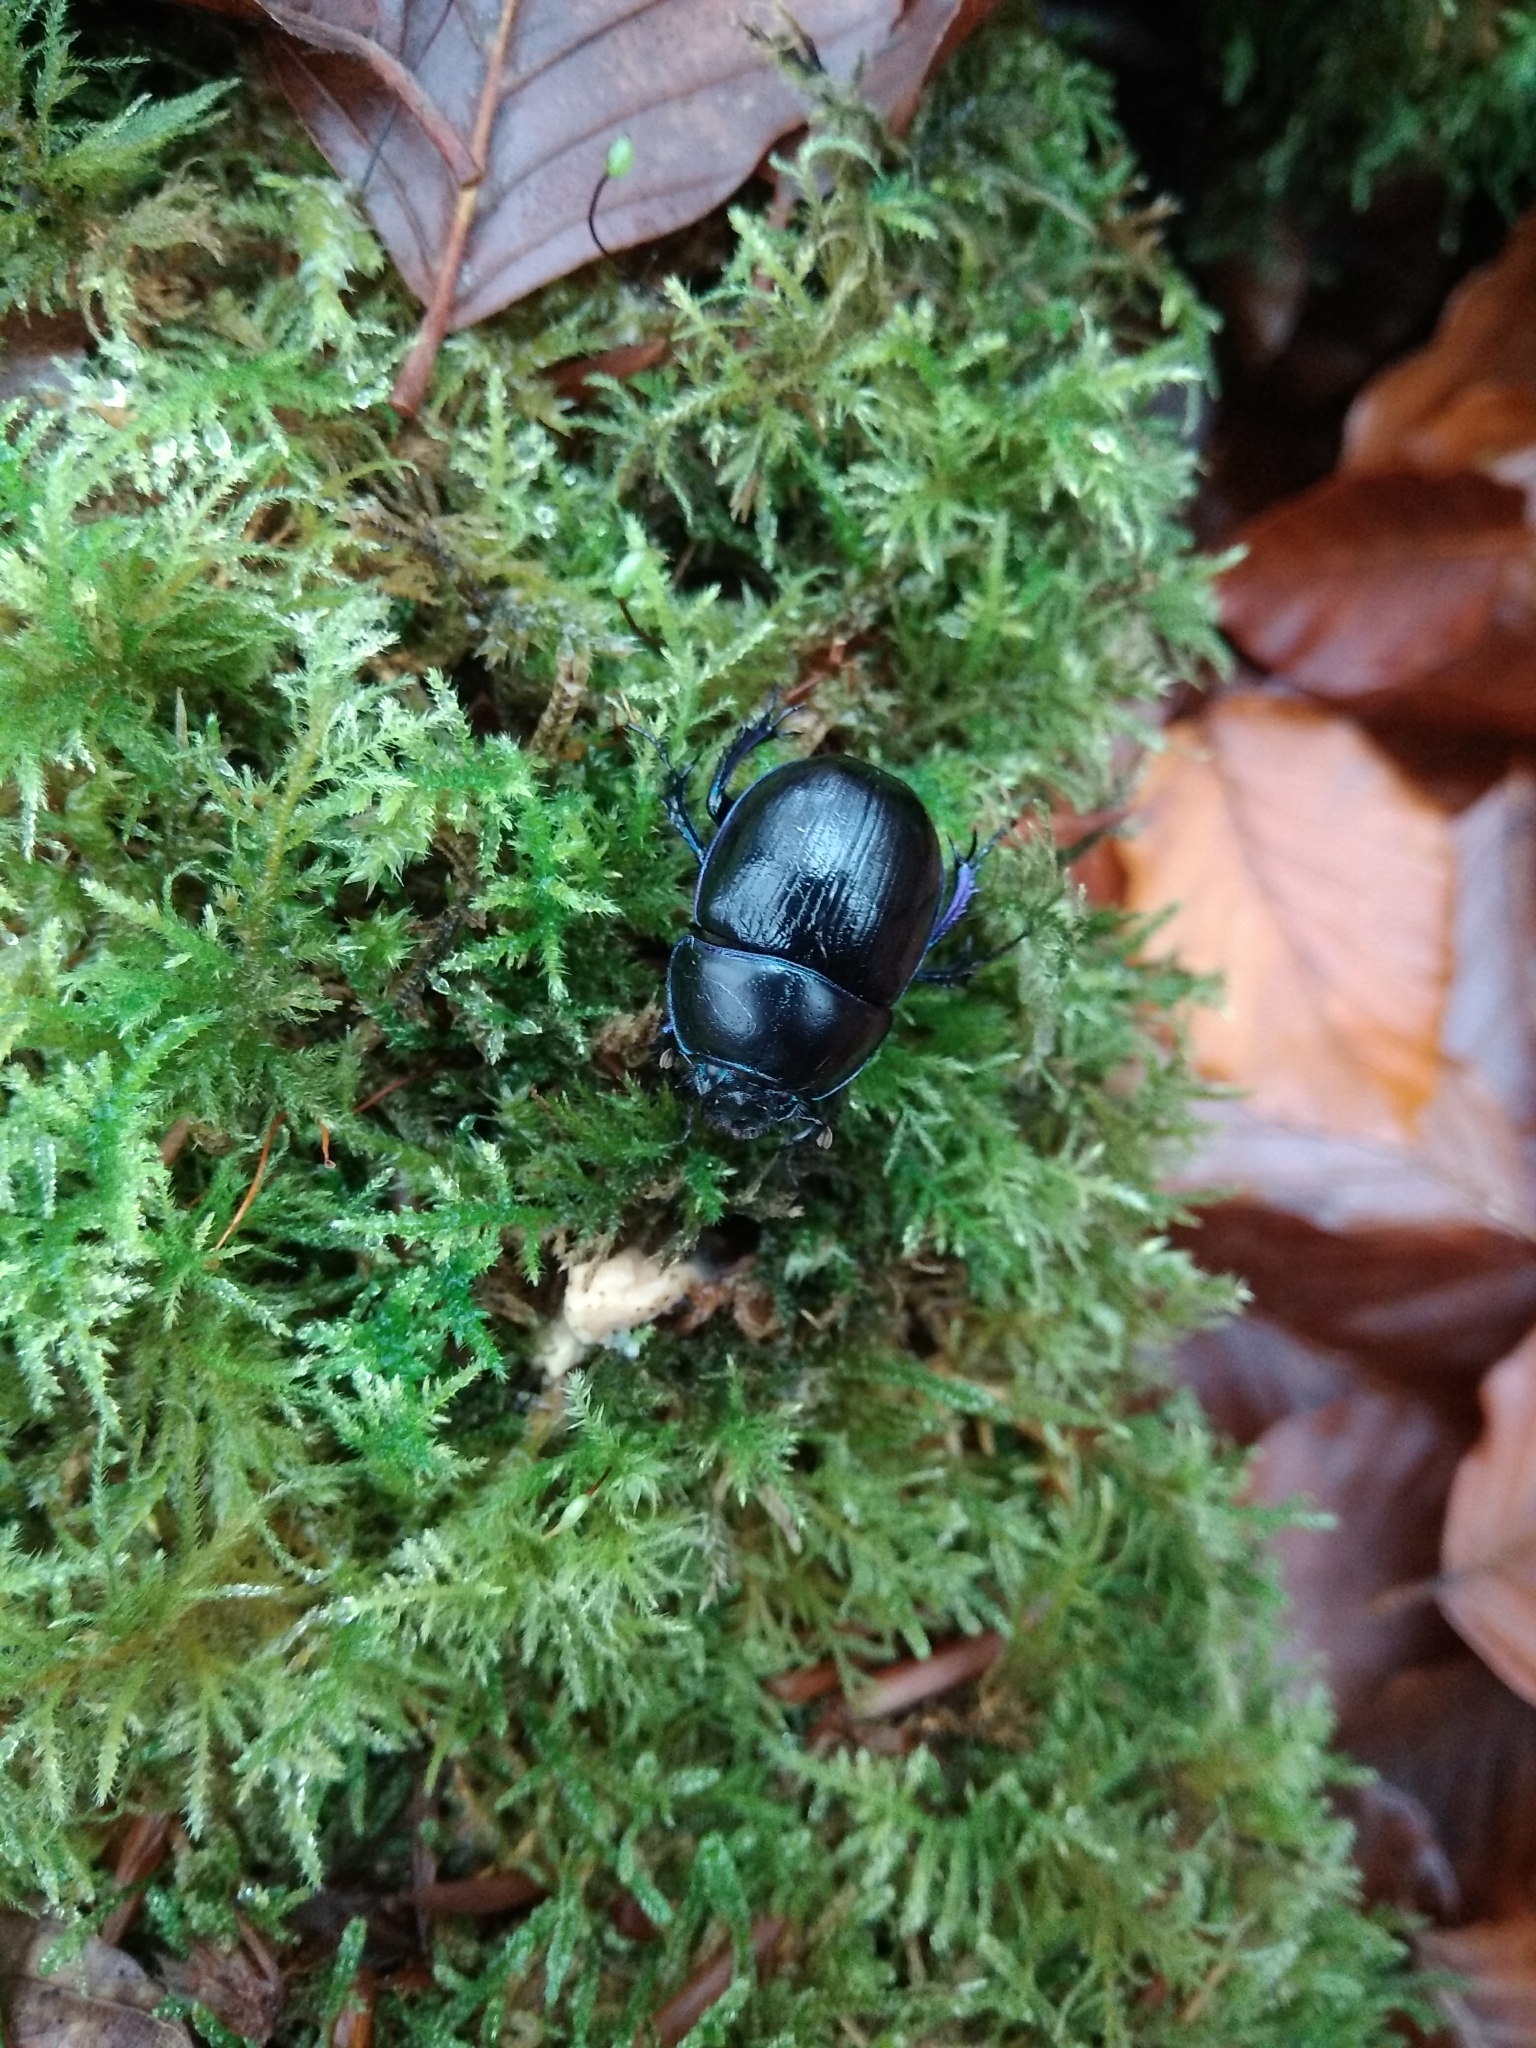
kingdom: Animalia
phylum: Arthropoda
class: Insecta
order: Coleoptera
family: Geotrupidae
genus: Anoplotrupes
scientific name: Anoplotrupes stercorosus
